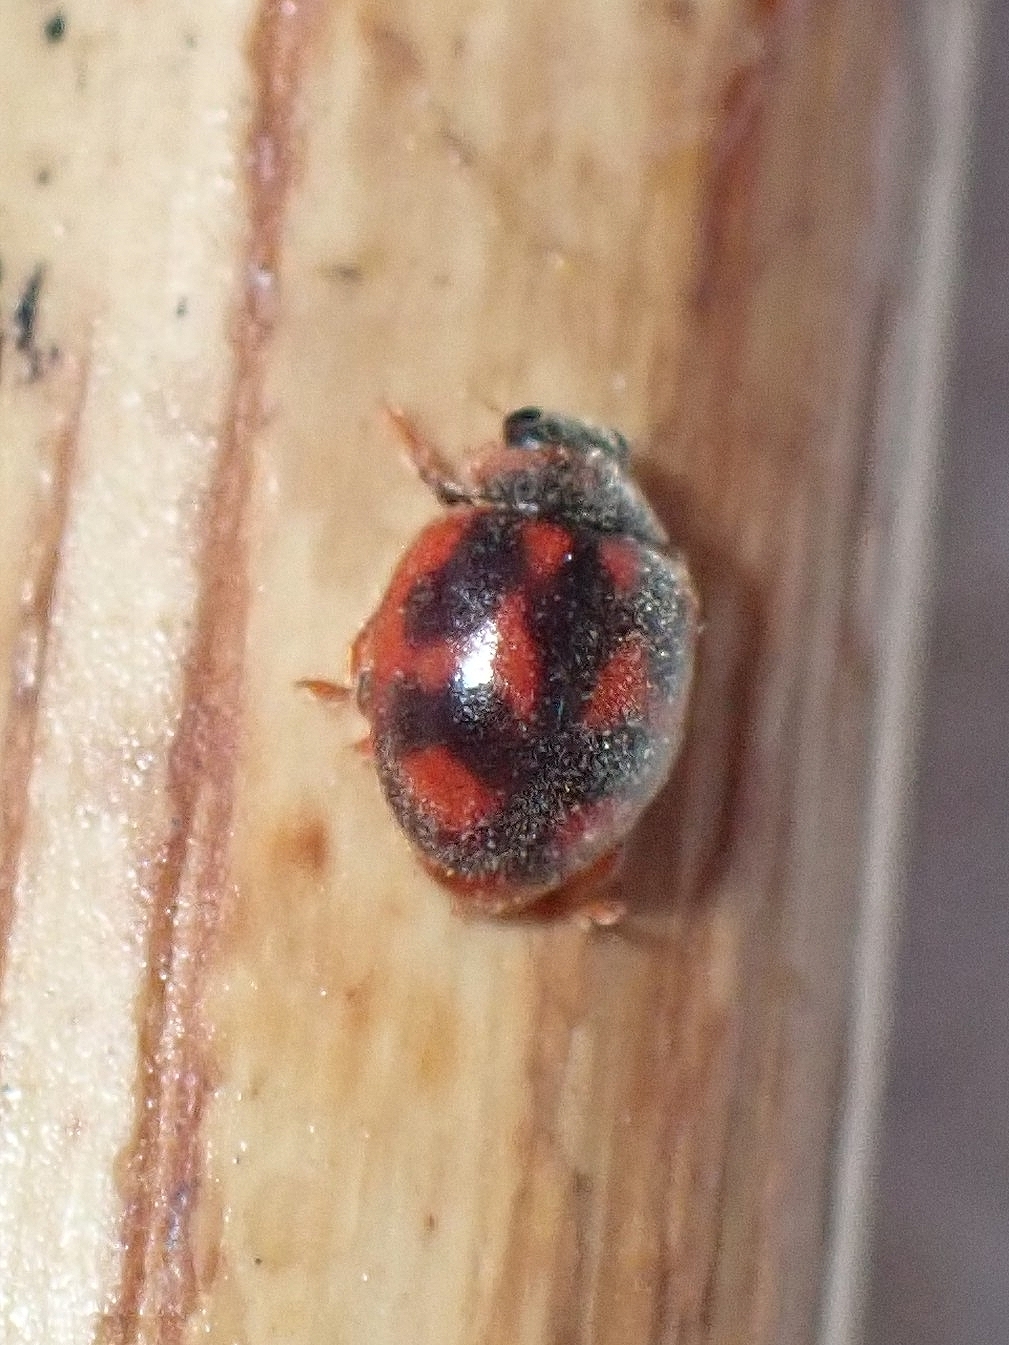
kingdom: Animalia
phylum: Arthropoda
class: Insecta
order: Coleoptera
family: Coccinellidae
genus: Novius
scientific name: Novius cardinalis
